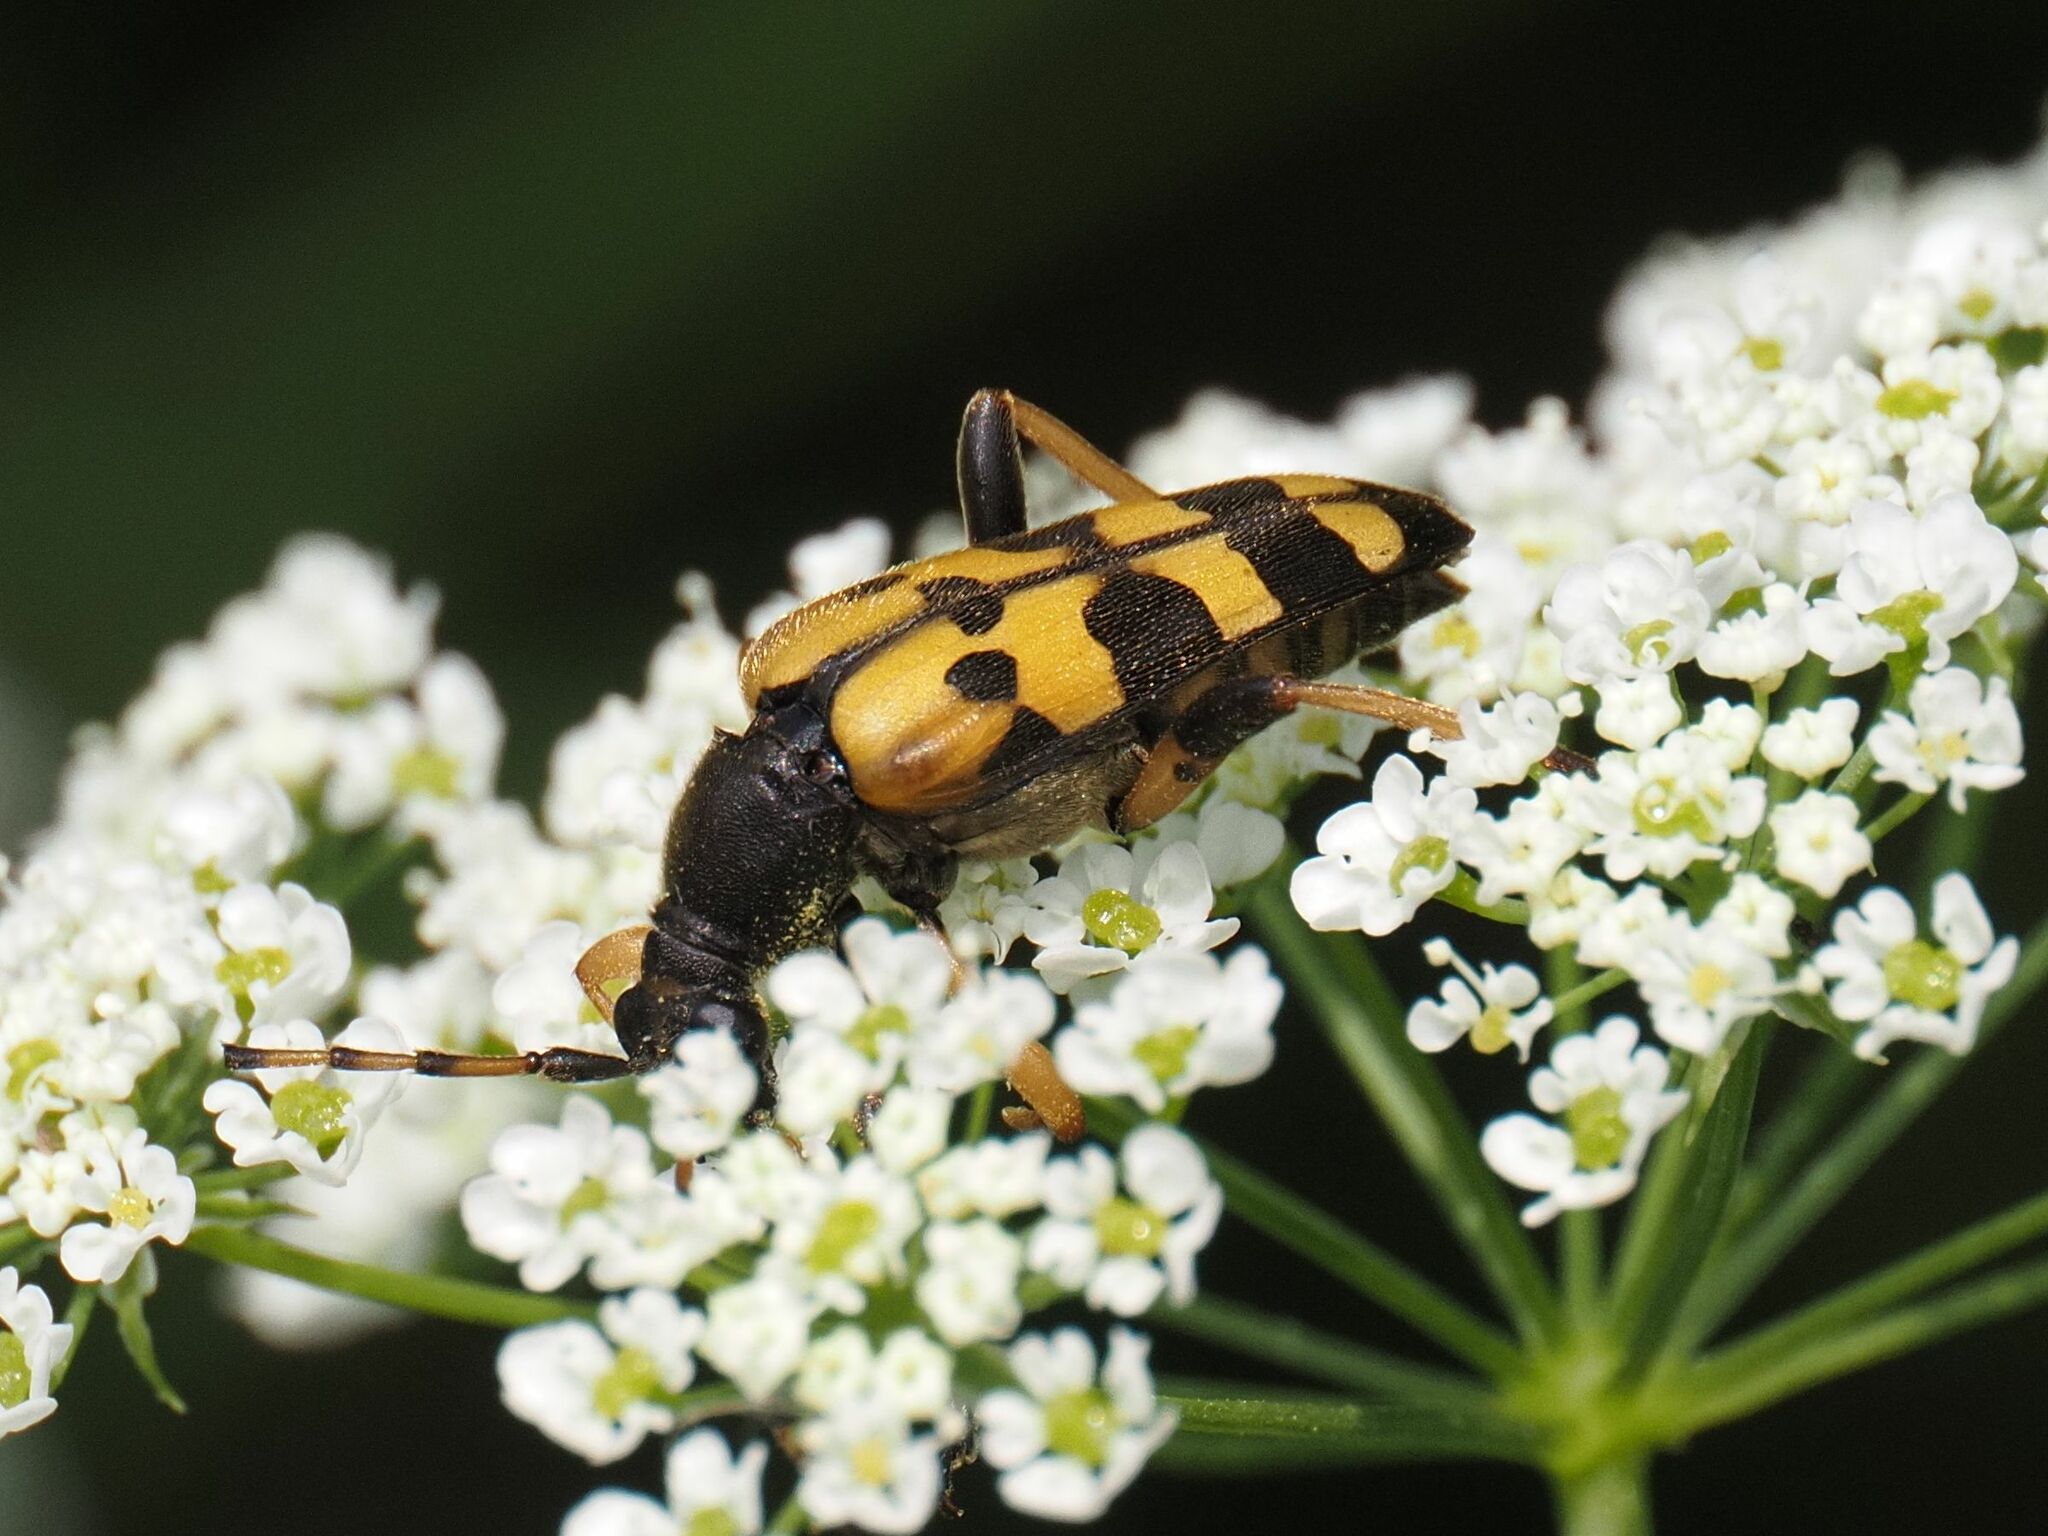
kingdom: Animalia
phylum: Arthropoda
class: Insecta
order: Coleoptera
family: Cerambycidae
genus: Rutpela
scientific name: Rutpela maculata
